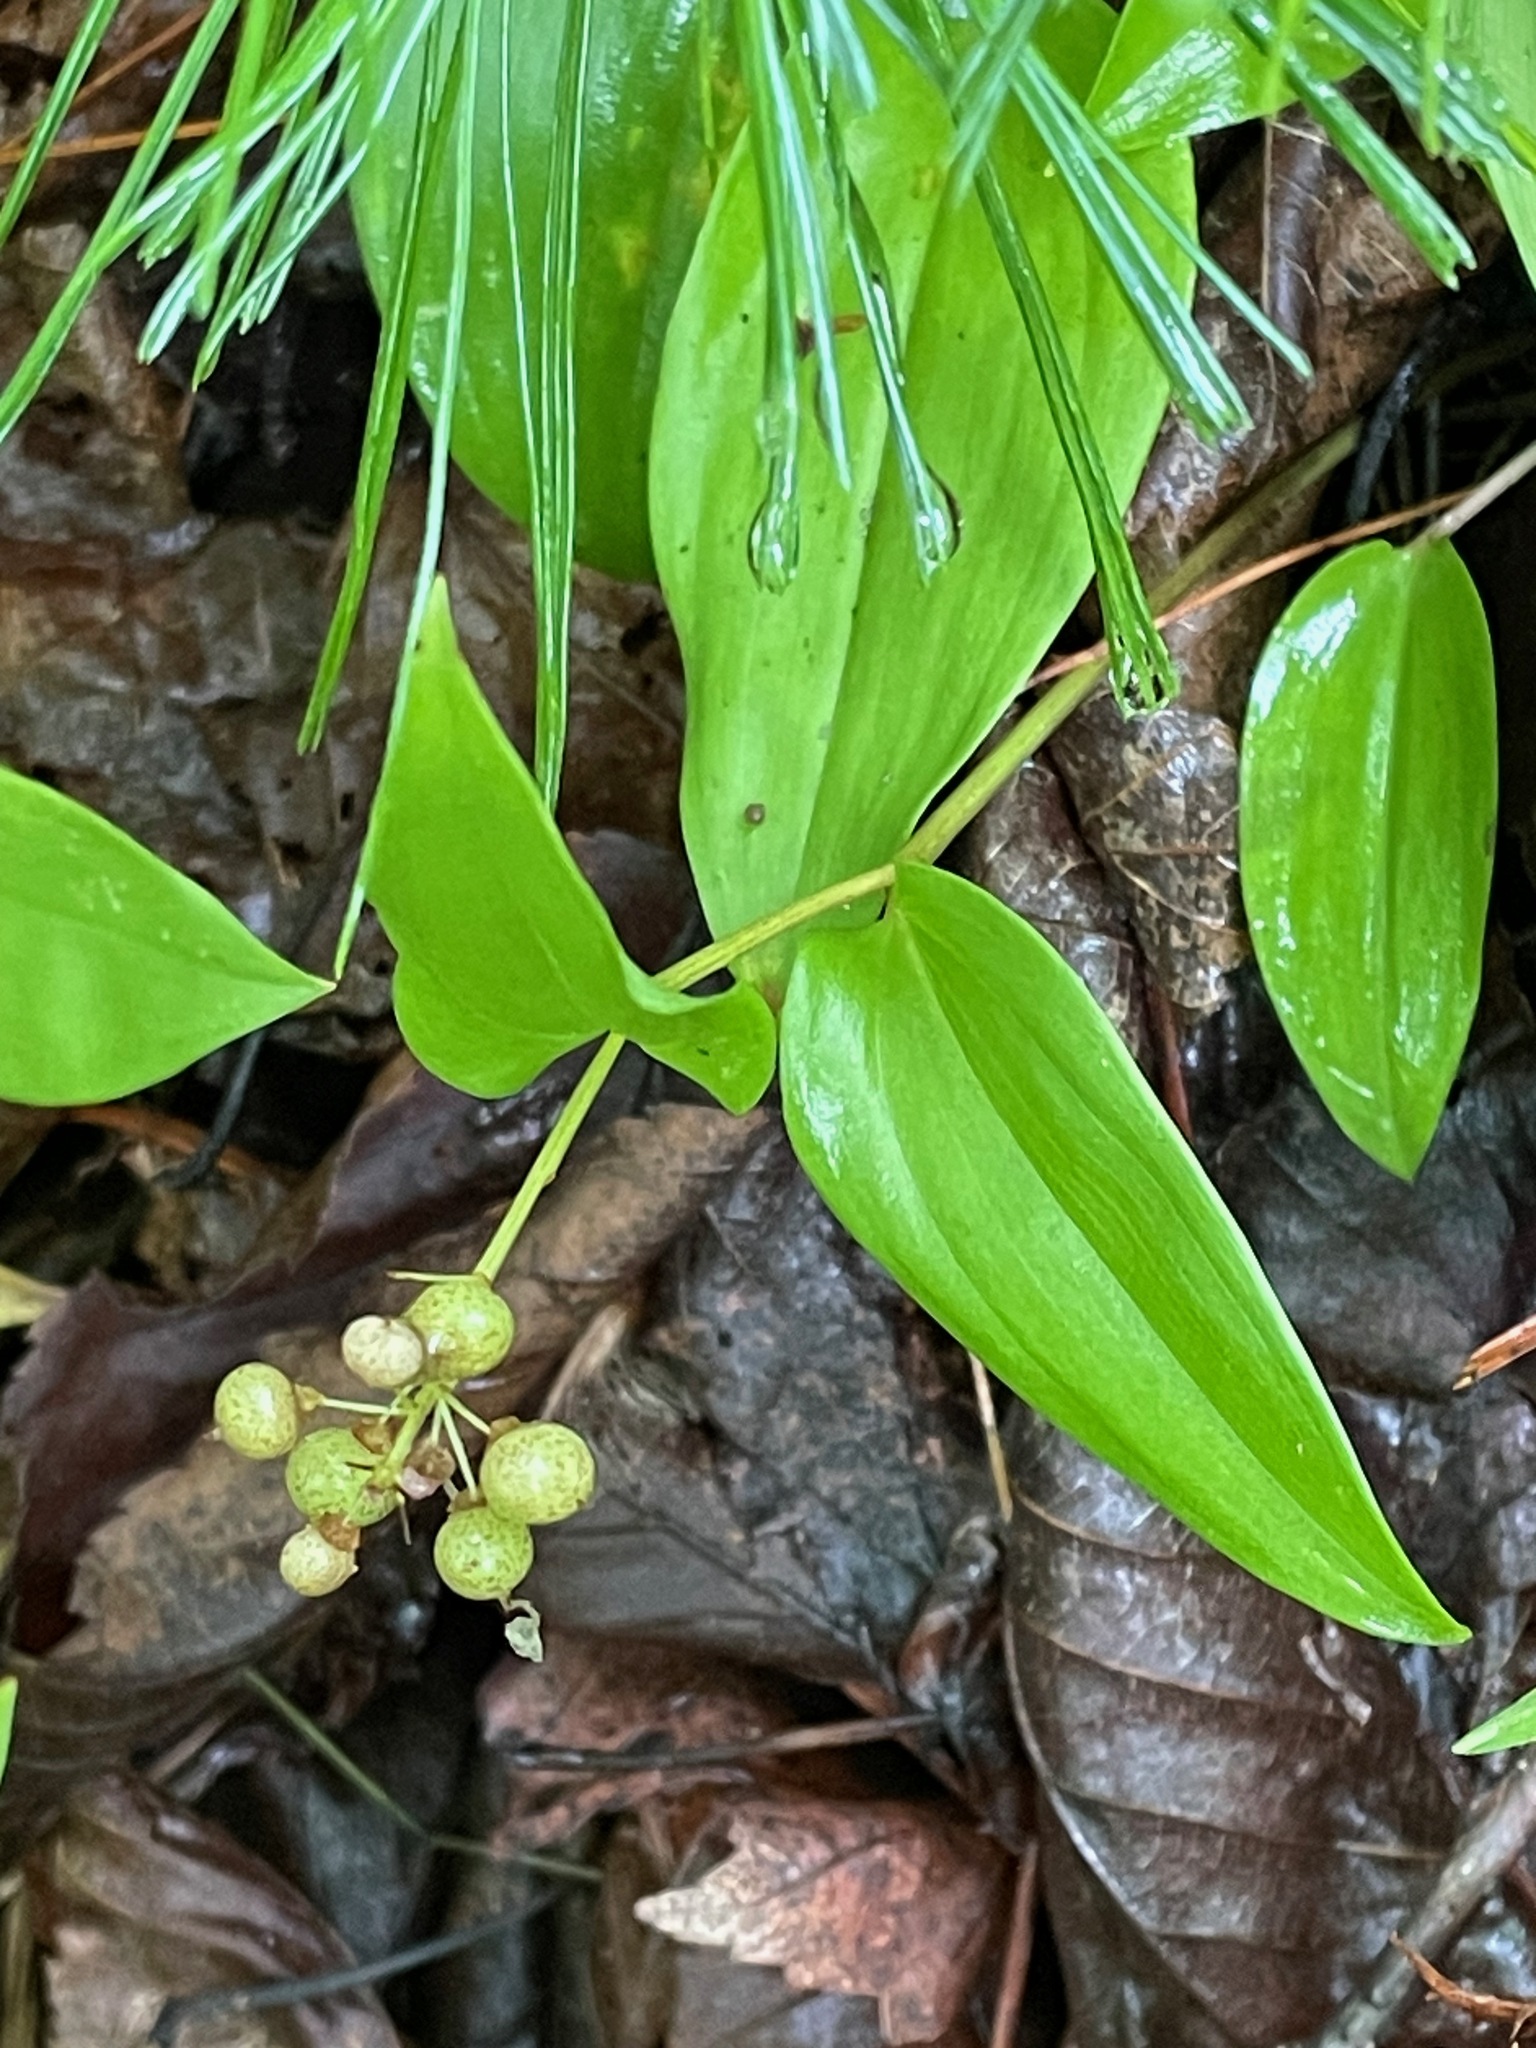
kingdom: Plantae
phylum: Tracheophyta
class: Liliopsida
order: Asparagales
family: Asparagaceae
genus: Maianthemum
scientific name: Maianthemum canadense
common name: False lily-of-the-valley
